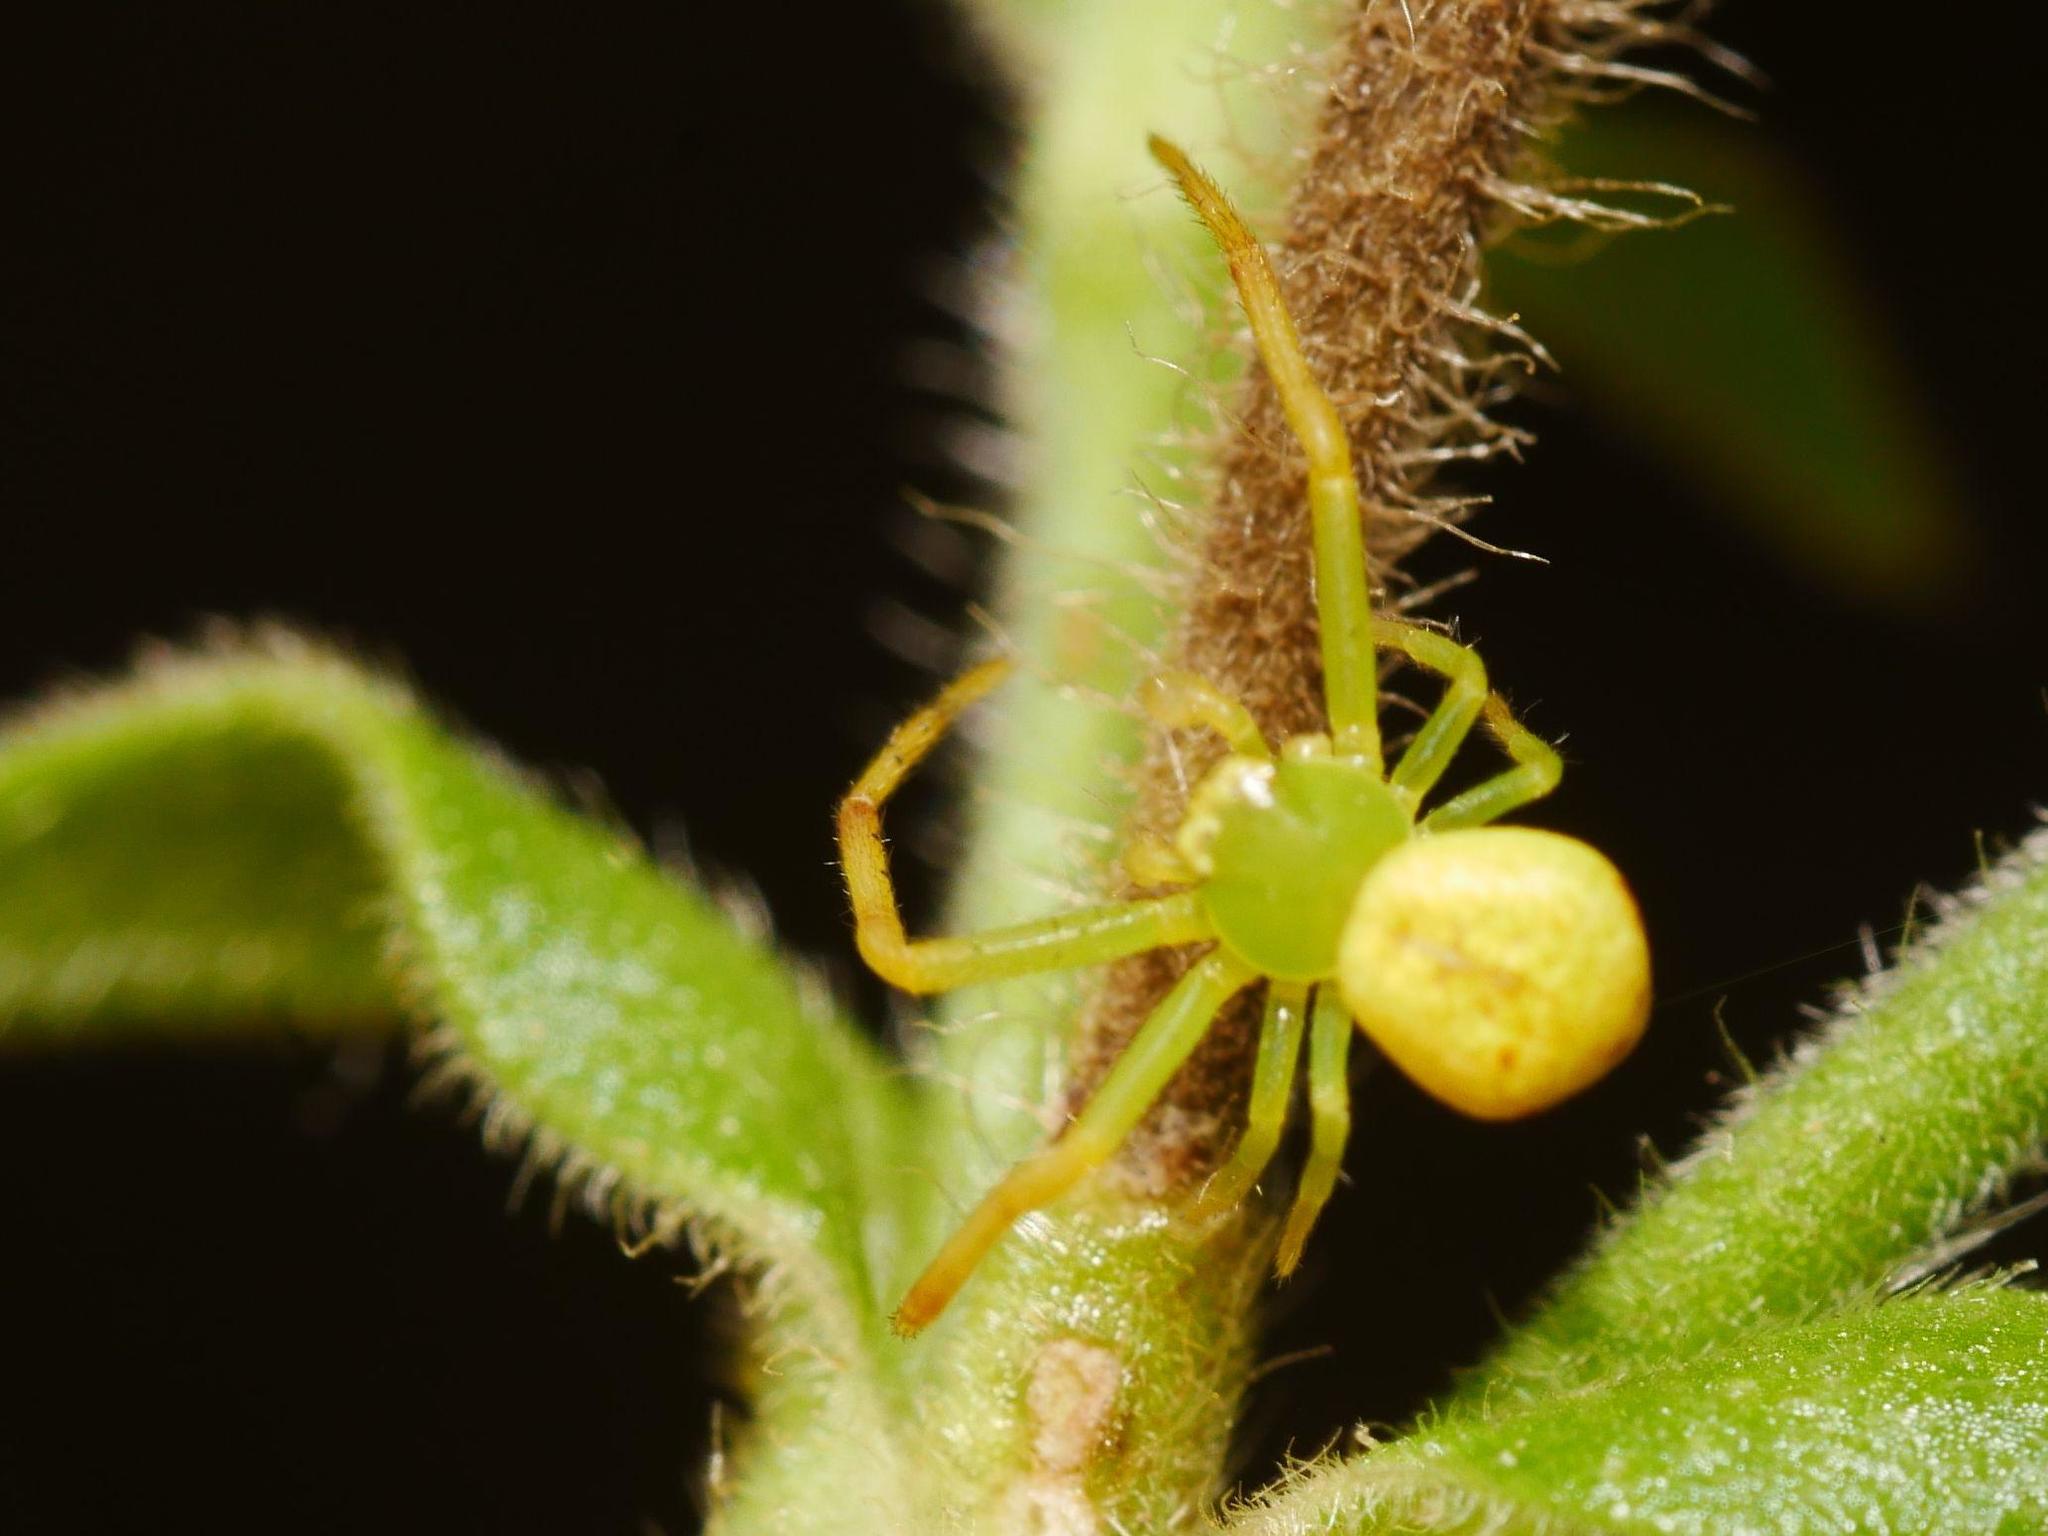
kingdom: Animalia
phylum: Arthropoda
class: Arachnida
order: Araneae
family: Thomisidae
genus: Ebrechtella
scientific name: Ebrechtella tricuspidata
